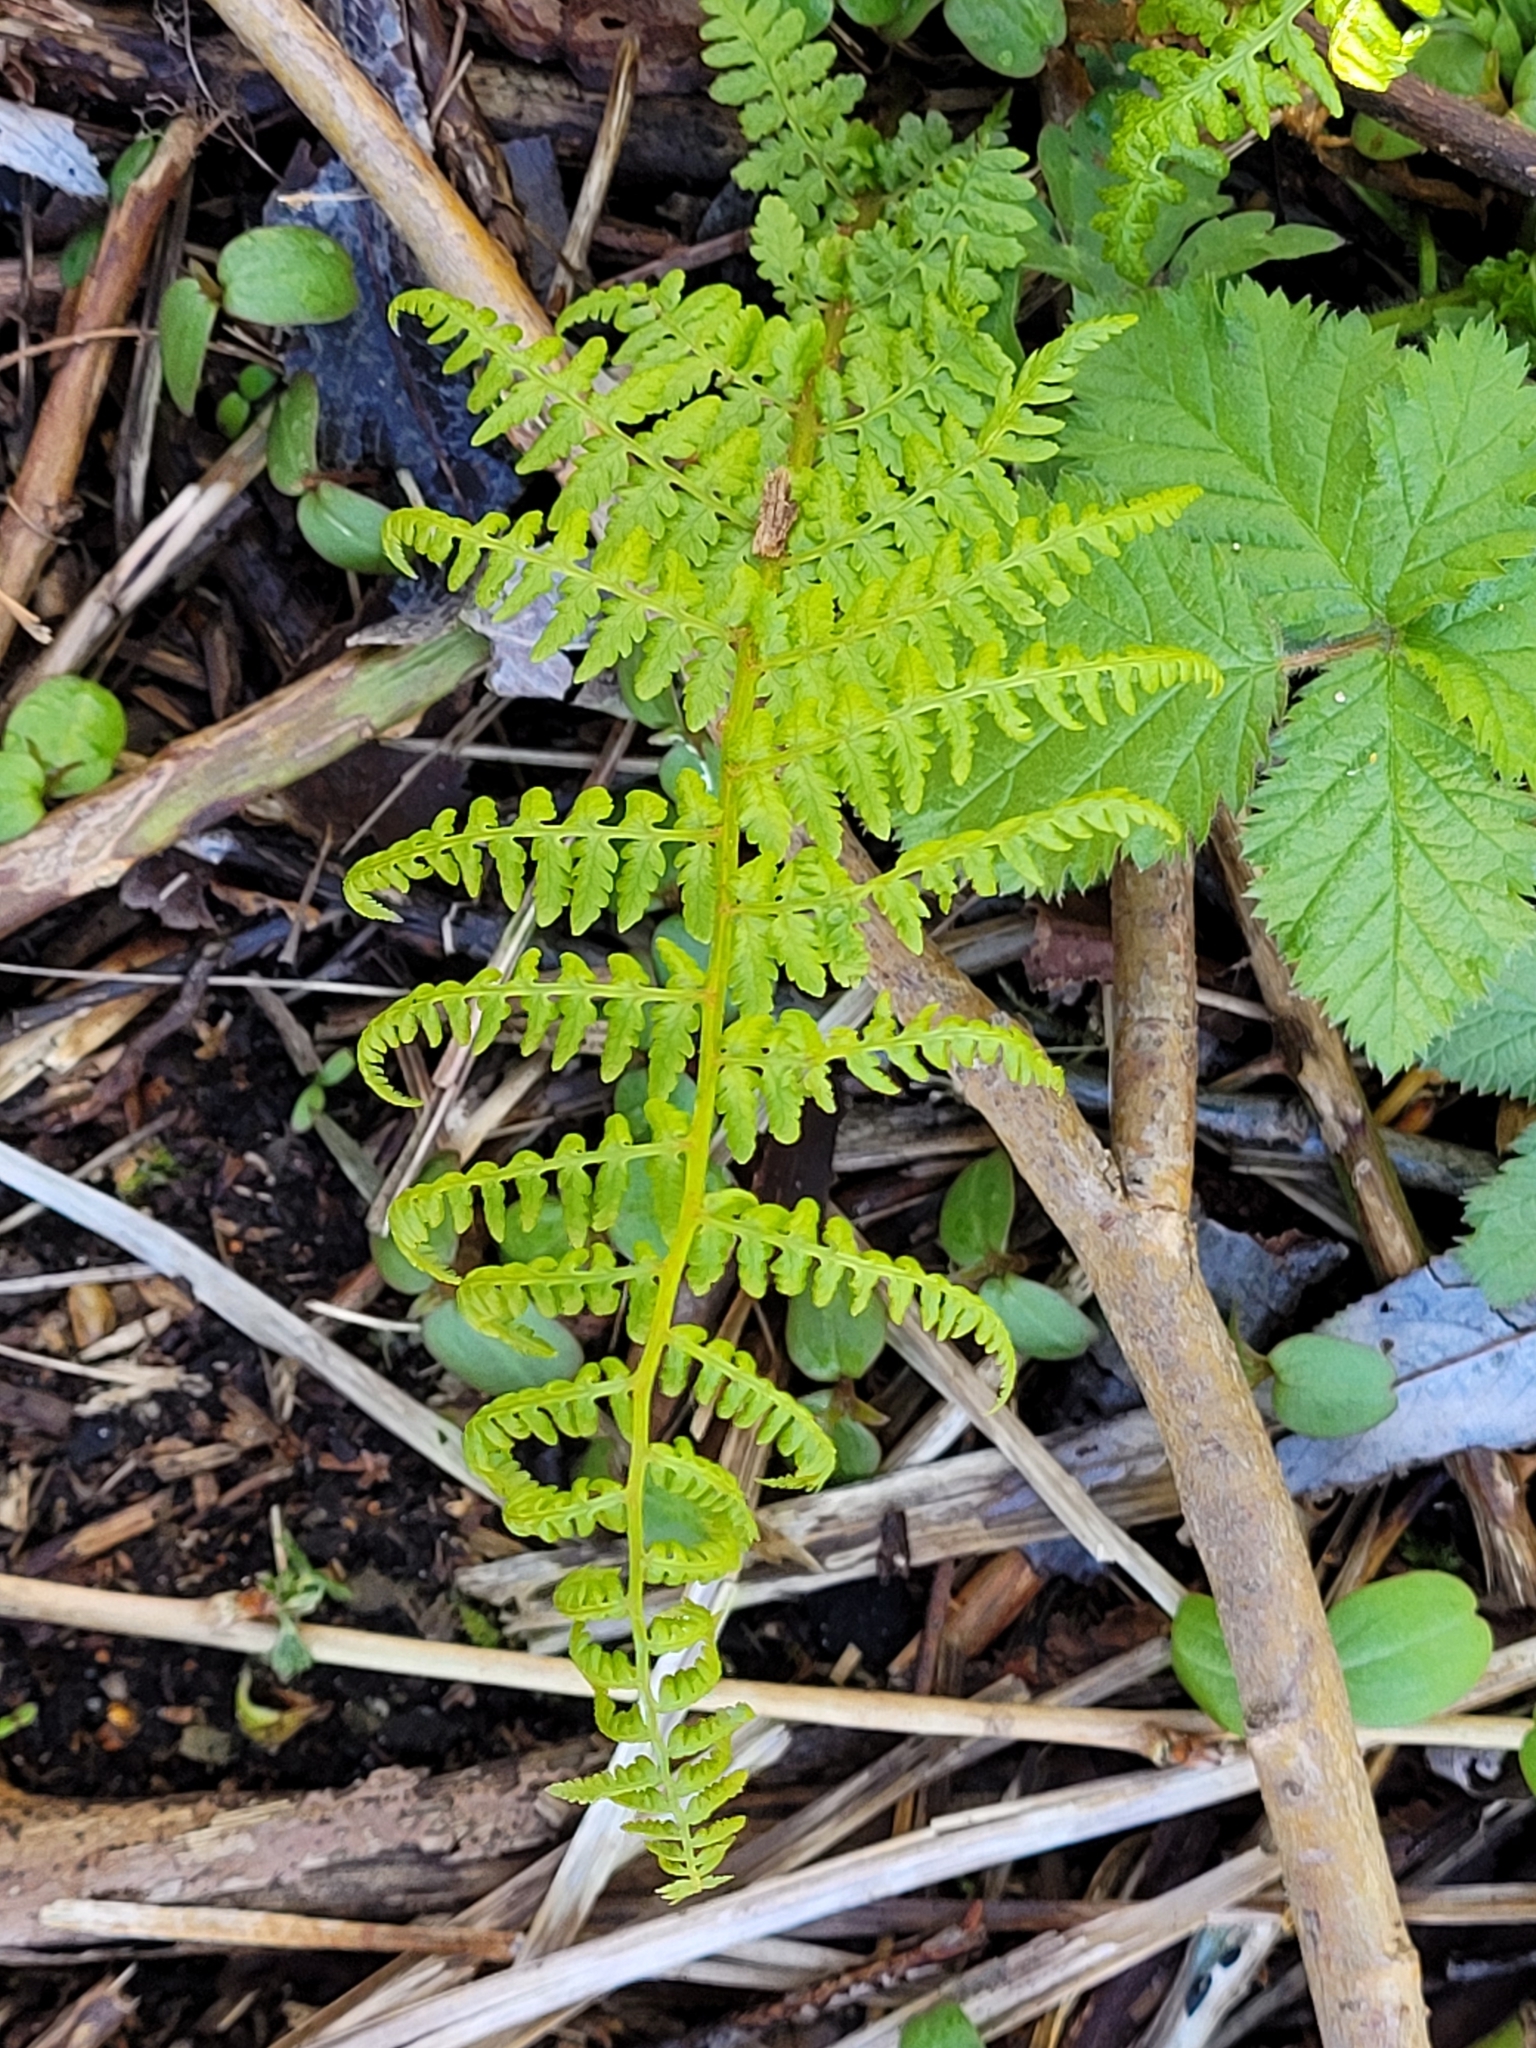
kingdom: Plantae
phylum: Tracheophyta
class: Polypodiopsida
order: Polypodiales
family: Athyriaceae
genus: Athyrium
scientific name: Athyrium cyclosorum
